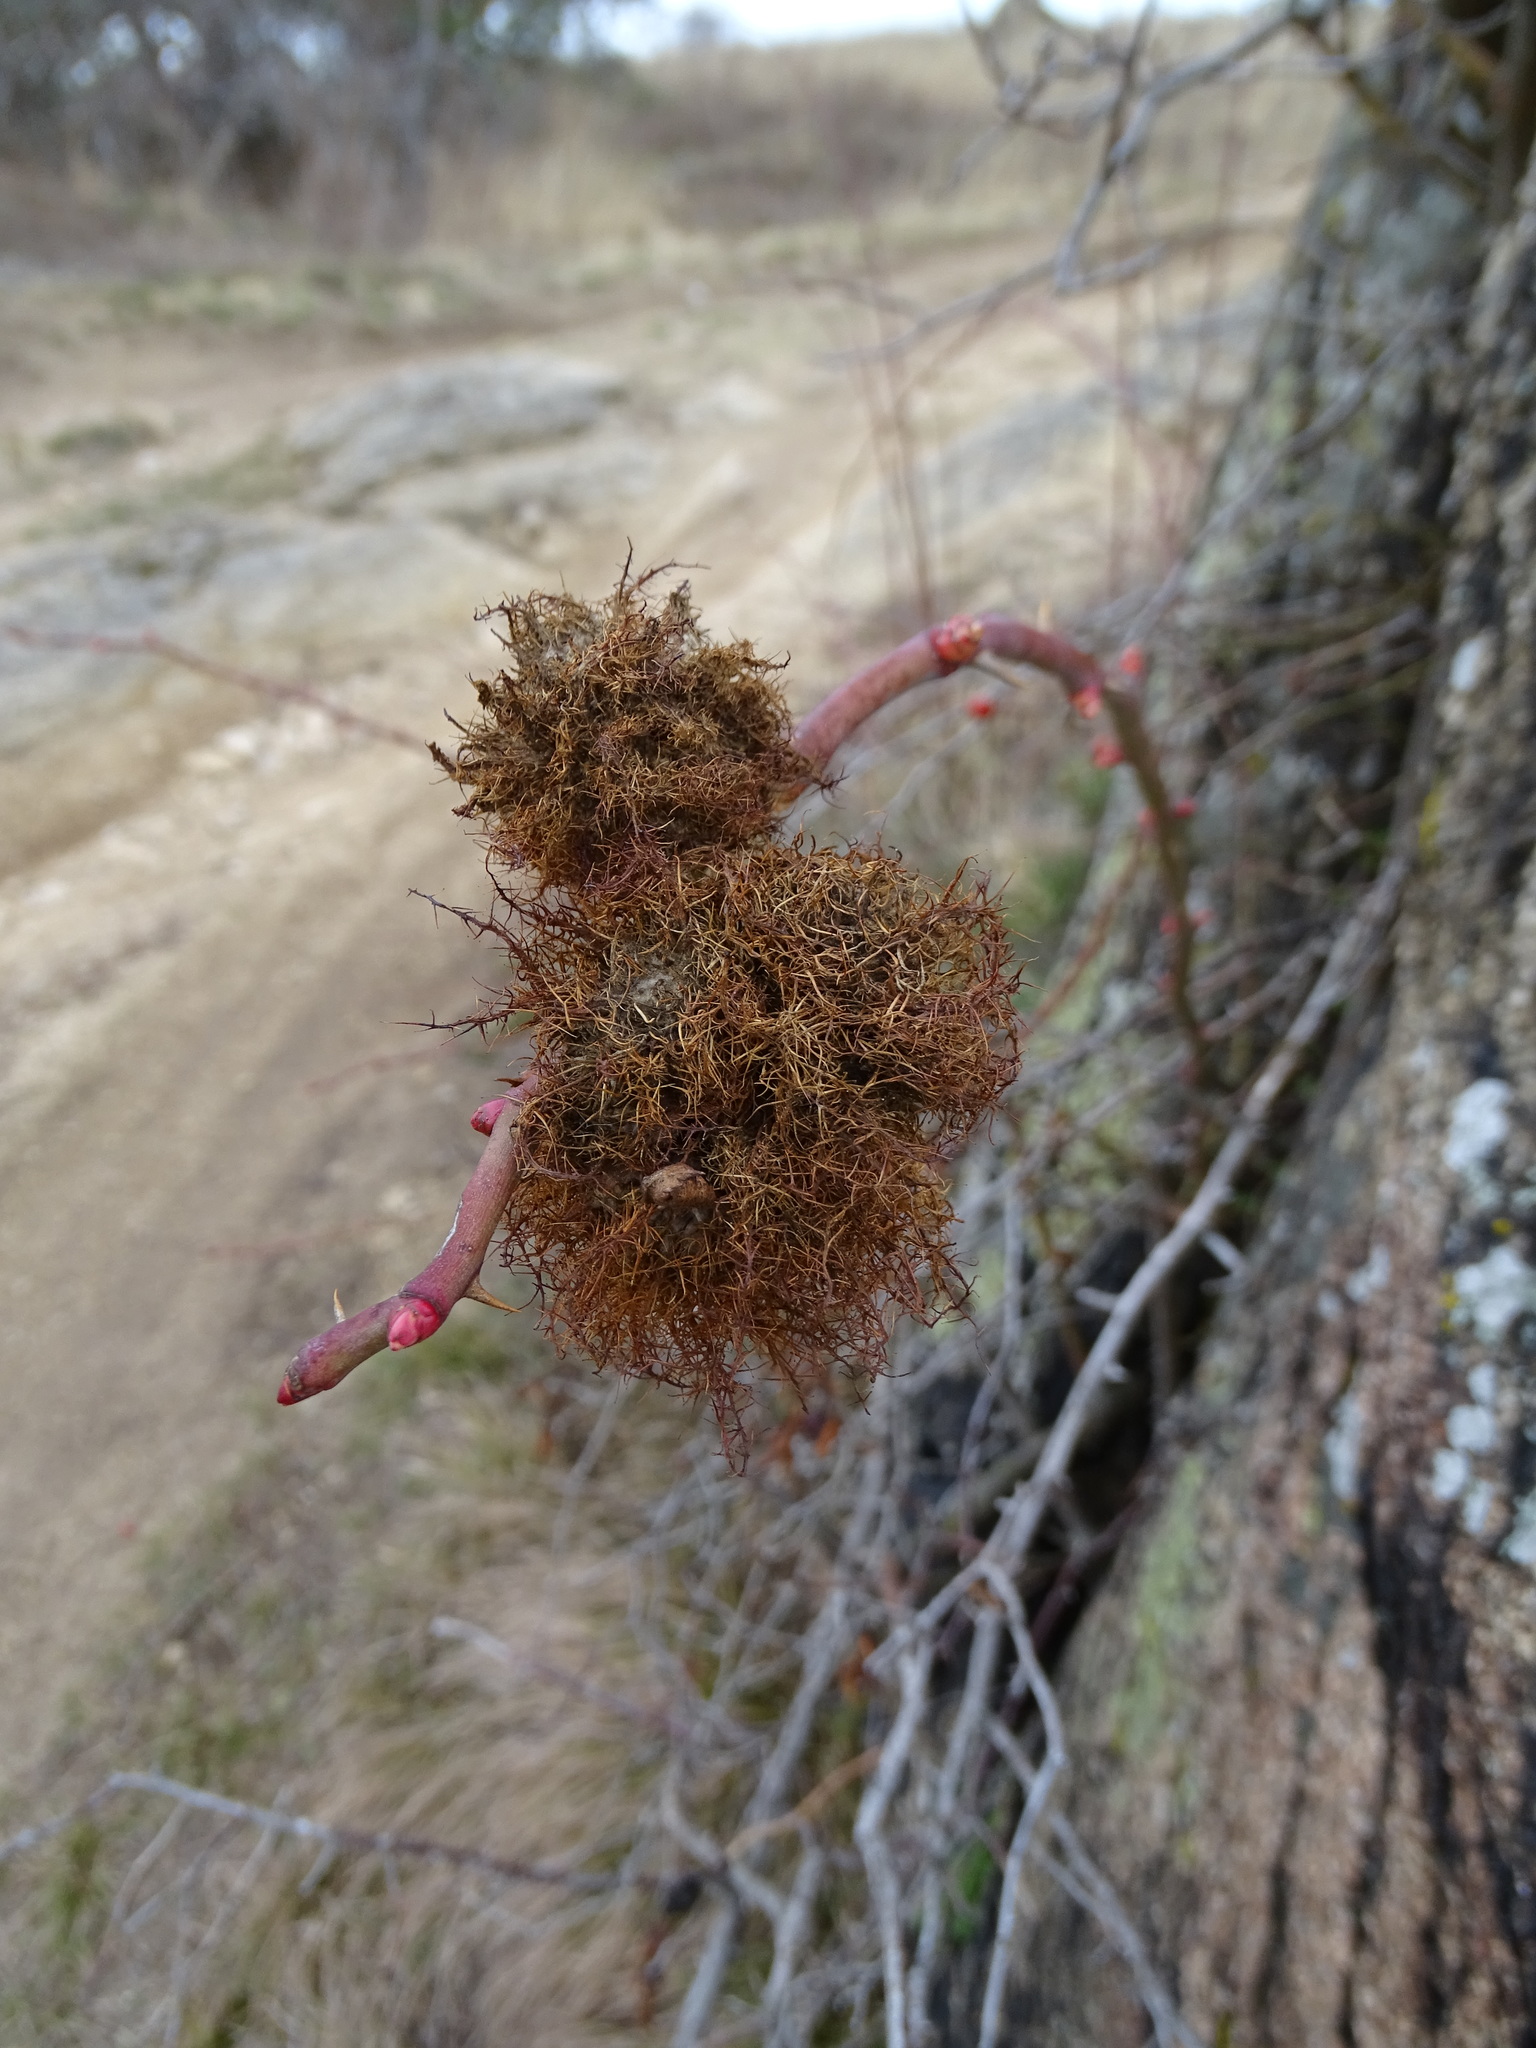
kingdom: Animalia
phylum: Arthropoda
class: Insecta
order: Hymenoptera
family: Cynipidae
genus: Diplolepis
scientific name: Diplolepis rosae
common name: Bedeguar gall
